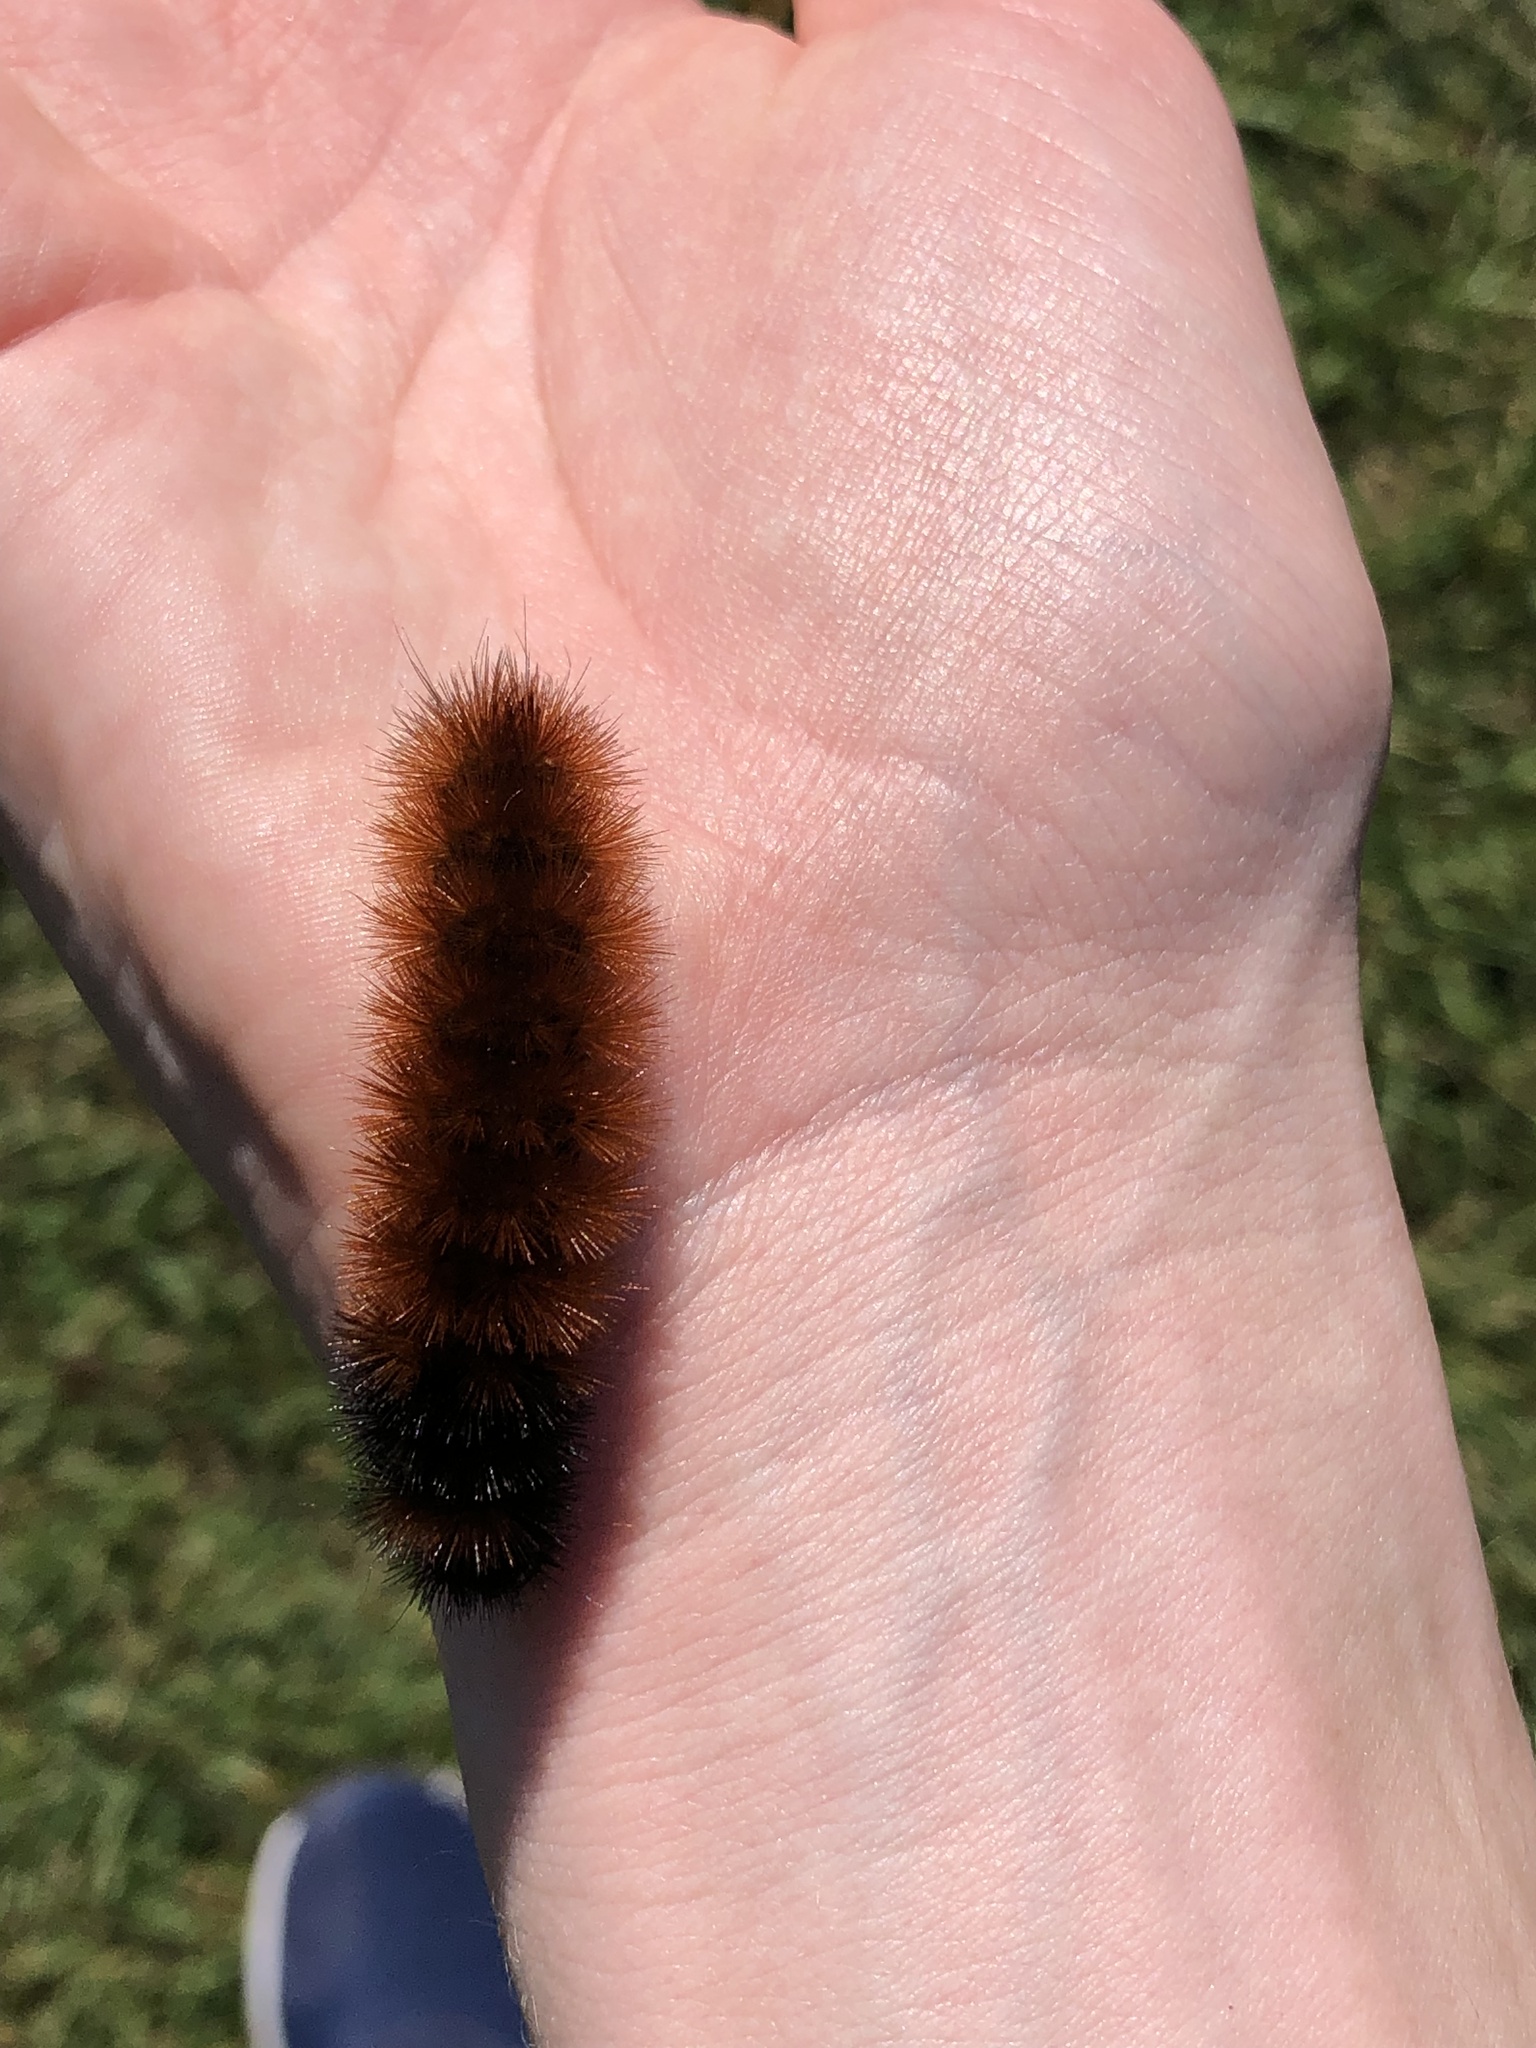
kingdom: Animalia
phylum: Arthropoda
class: Insecta
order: Lepidoptera
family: Erebidae
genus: Pyrrharctia
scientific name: Pyrrharctia isabella
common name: Isabella tiger moth
